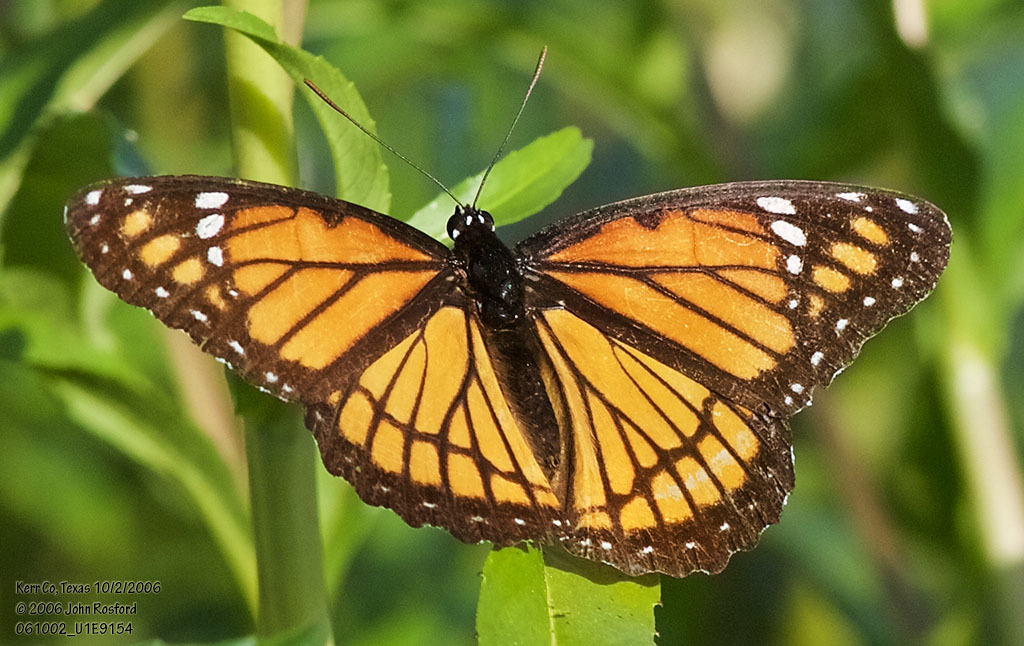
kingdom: Animalia
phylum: Arthropoda
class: Insecta
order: Lepidoptera
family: Nymphalidae
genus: Limenitis
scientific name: Limenitis archippus
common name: Viceroy
